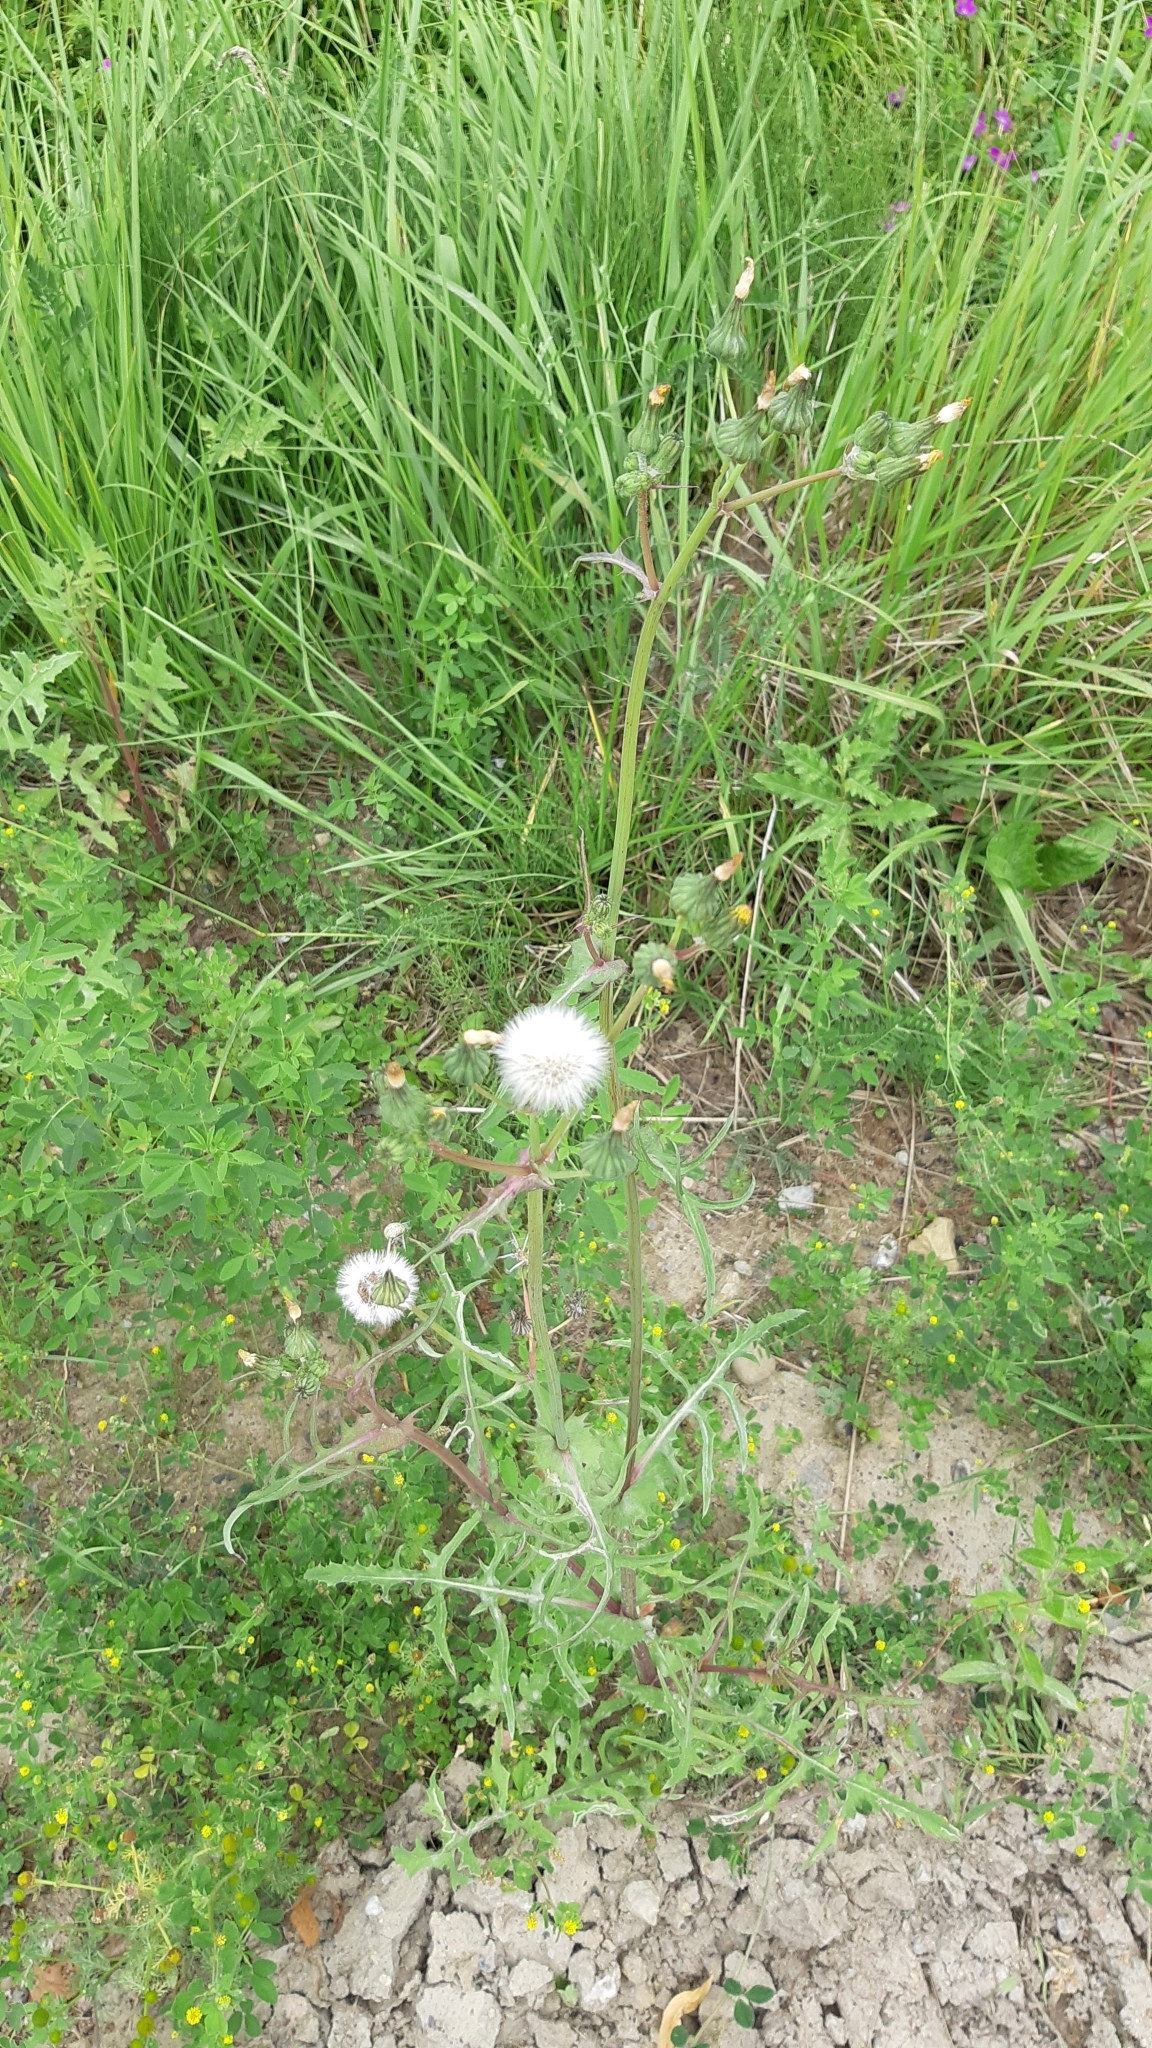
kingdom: Plantae
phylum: Tracheophyta
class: Magnoliopsida
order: Asterales
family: Asteraceae
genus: Sonchus
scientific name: Sonchus oleraceus
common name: Common sowthistle
